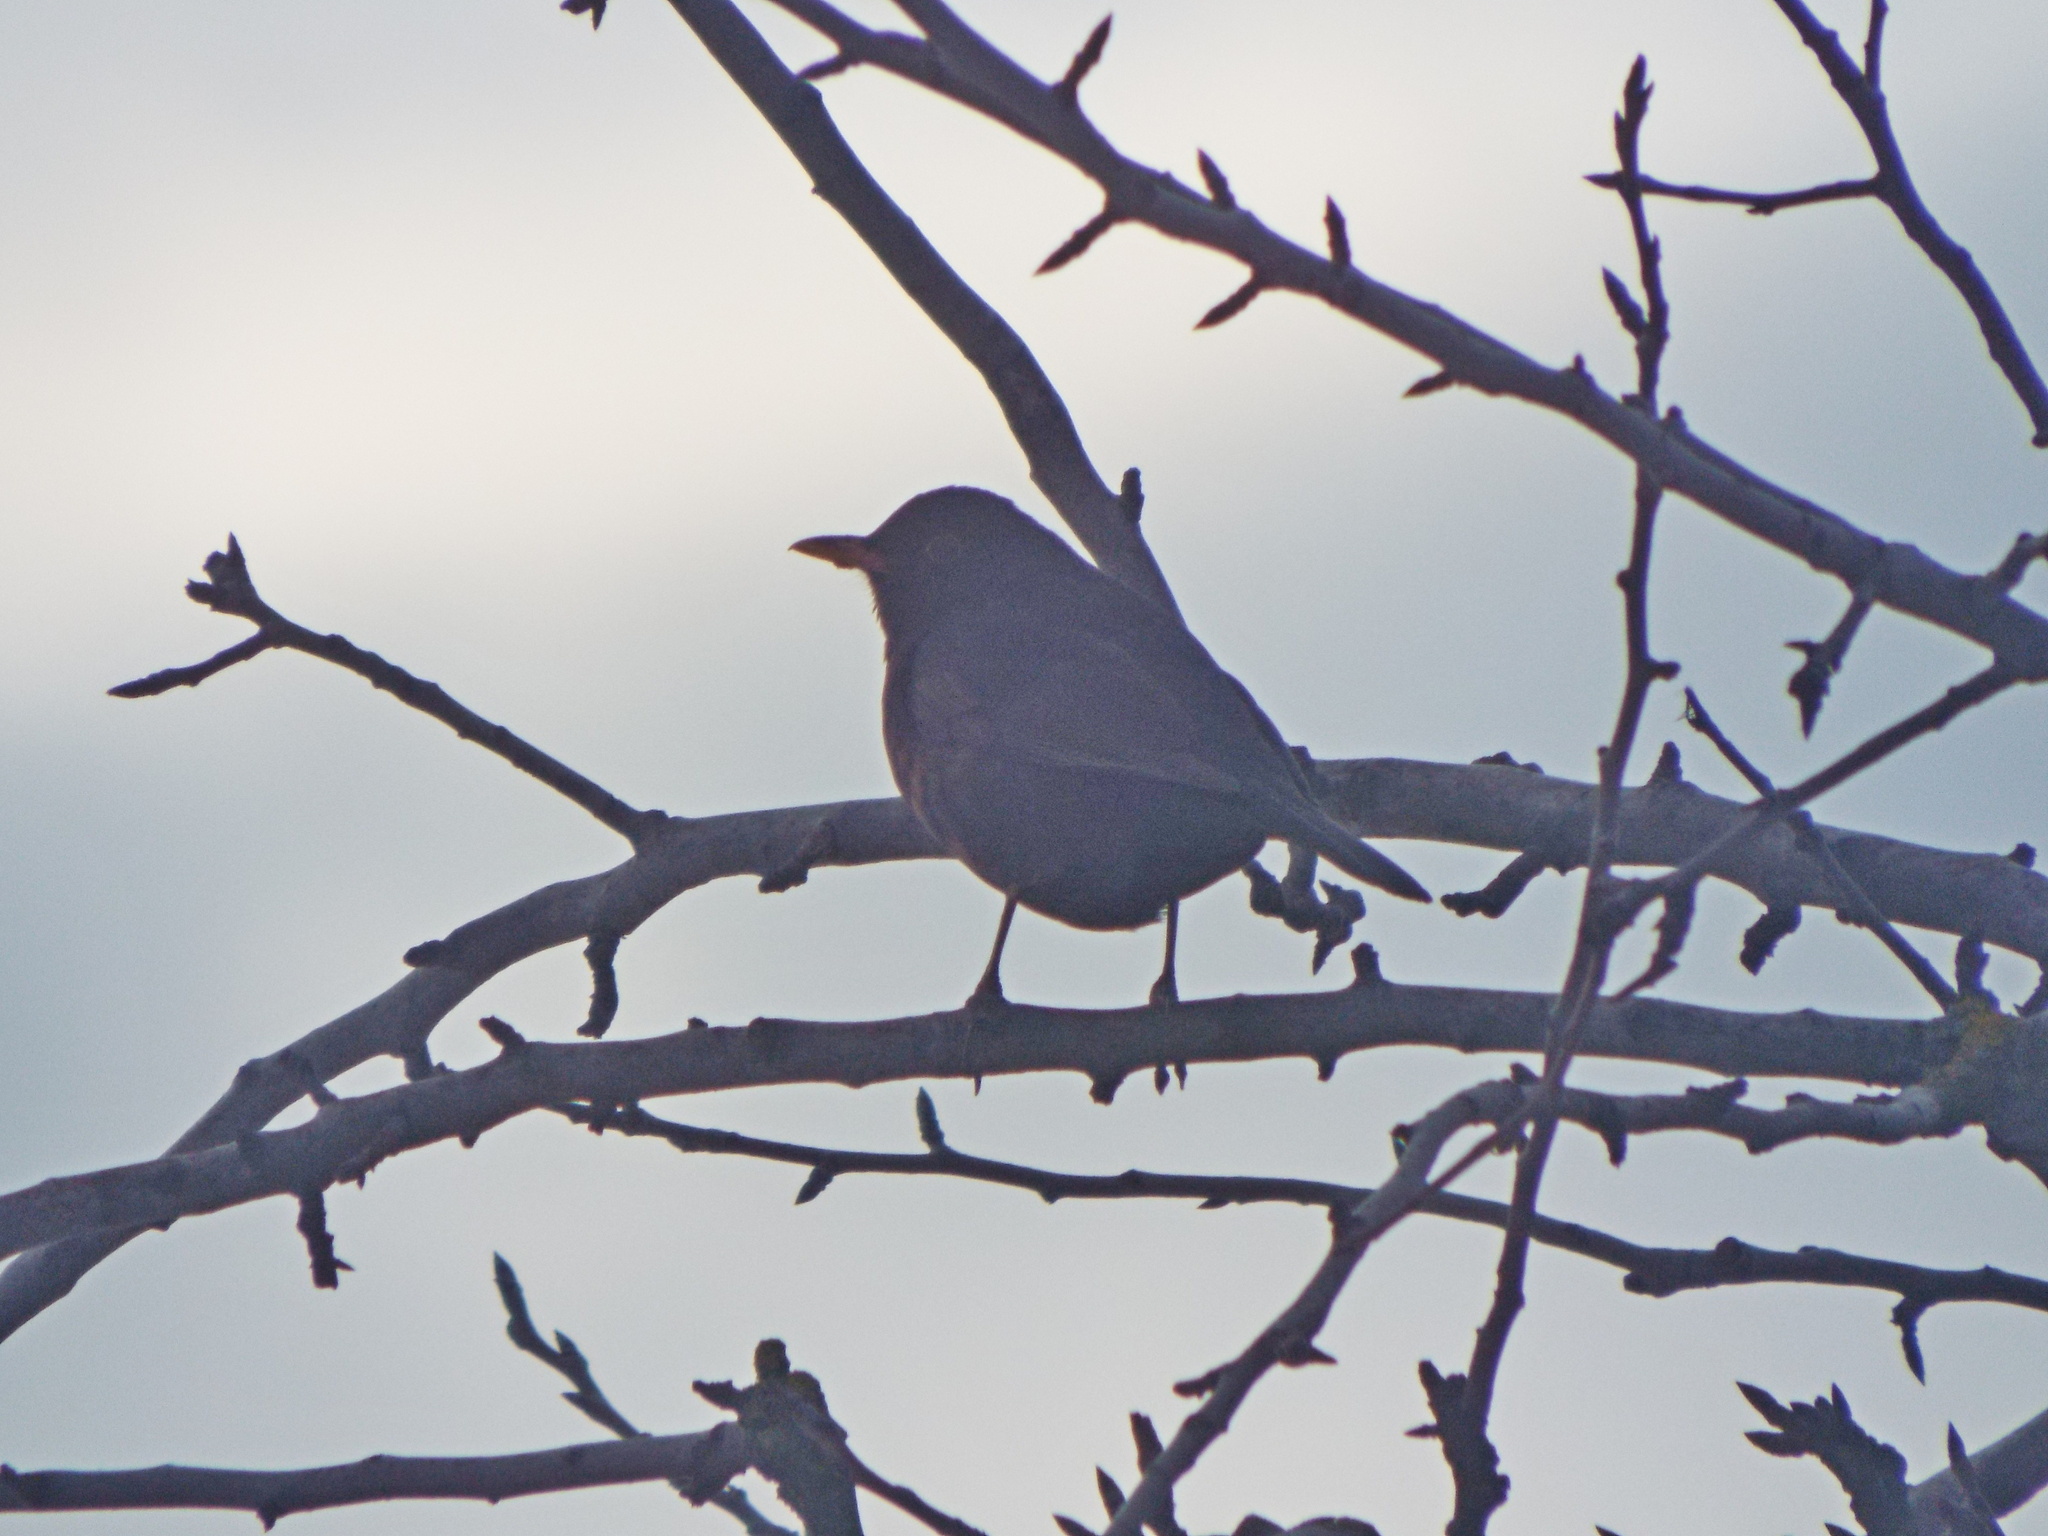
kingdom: Animalia
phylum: Chordata
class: Aves
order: Passeriformes
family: Turdidae
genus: Turdus
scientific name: Turdus merula
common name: Common blackbird
